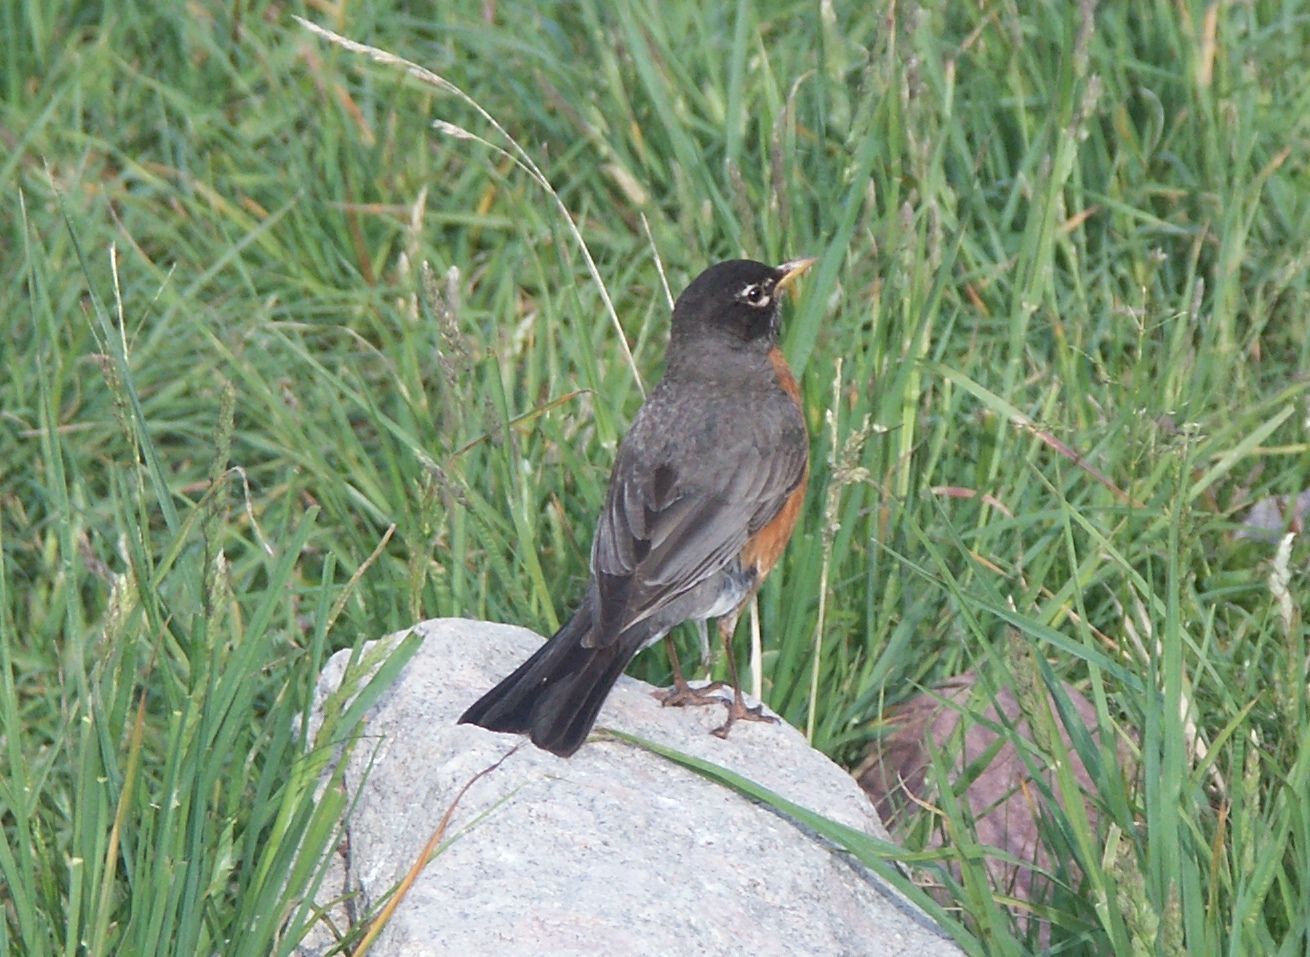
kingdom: Animalia
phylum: Chordata
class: Aves
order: Passeriformes
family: Turdidae
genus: Turdus
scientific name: Turdus migratorius
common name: American robin
